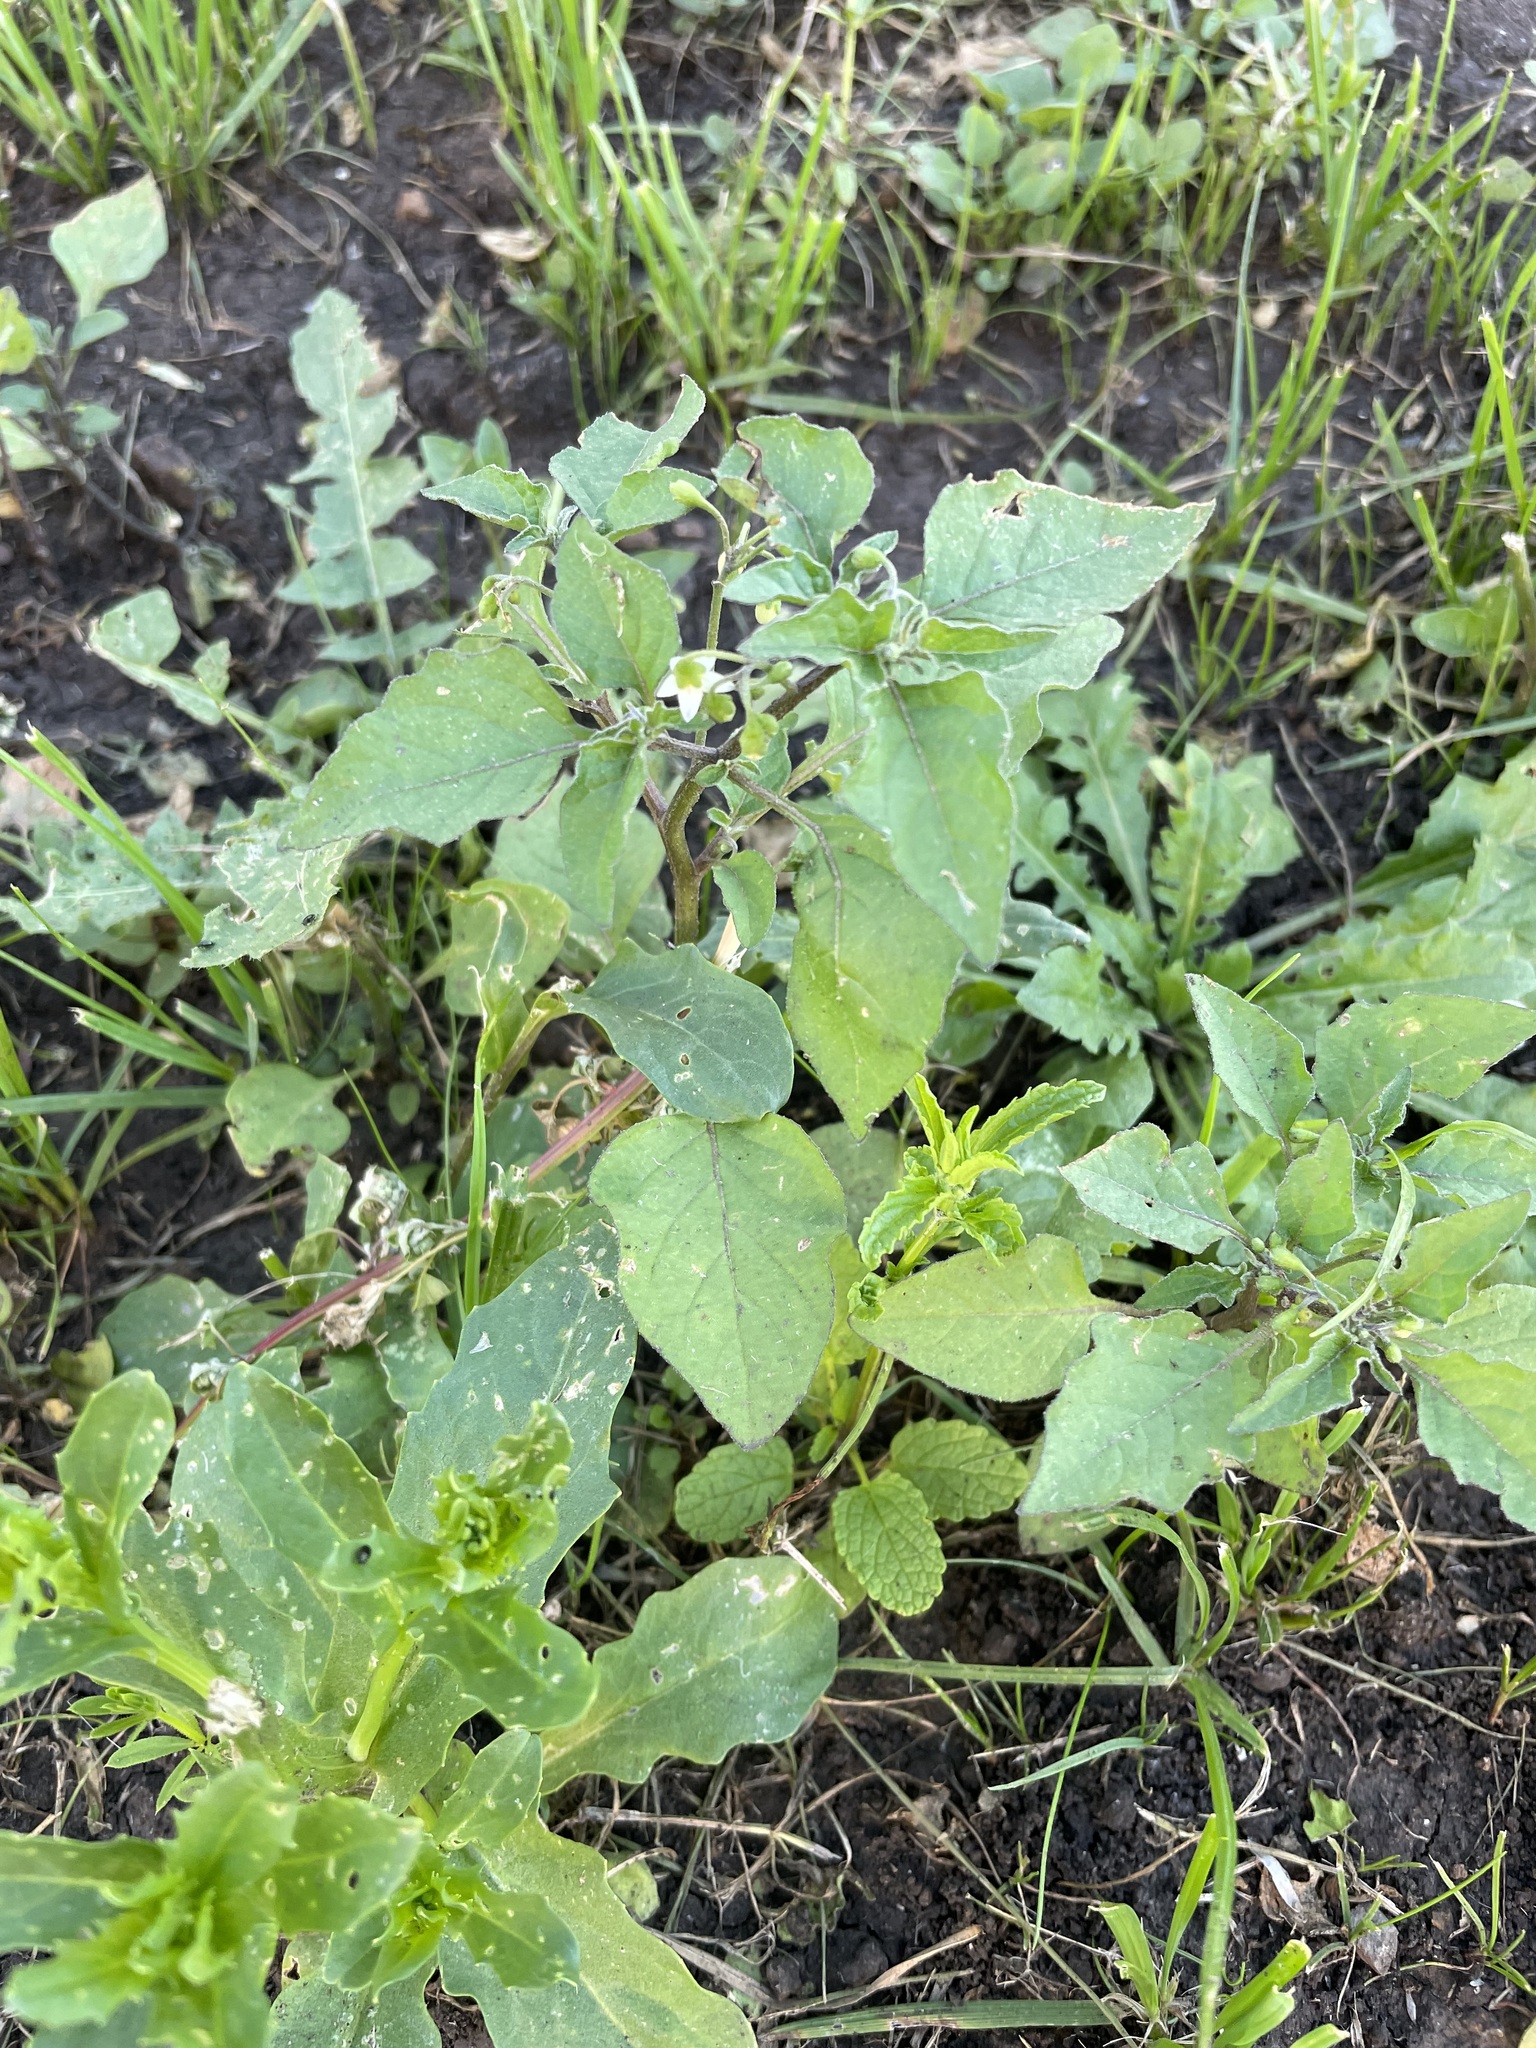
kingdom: Plantae
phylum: Tracheophyta
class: Magnoliopsida
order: Solanales
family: Solanaceae
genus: Solanum
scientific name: Solanum nigrum
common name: Black nightshade
